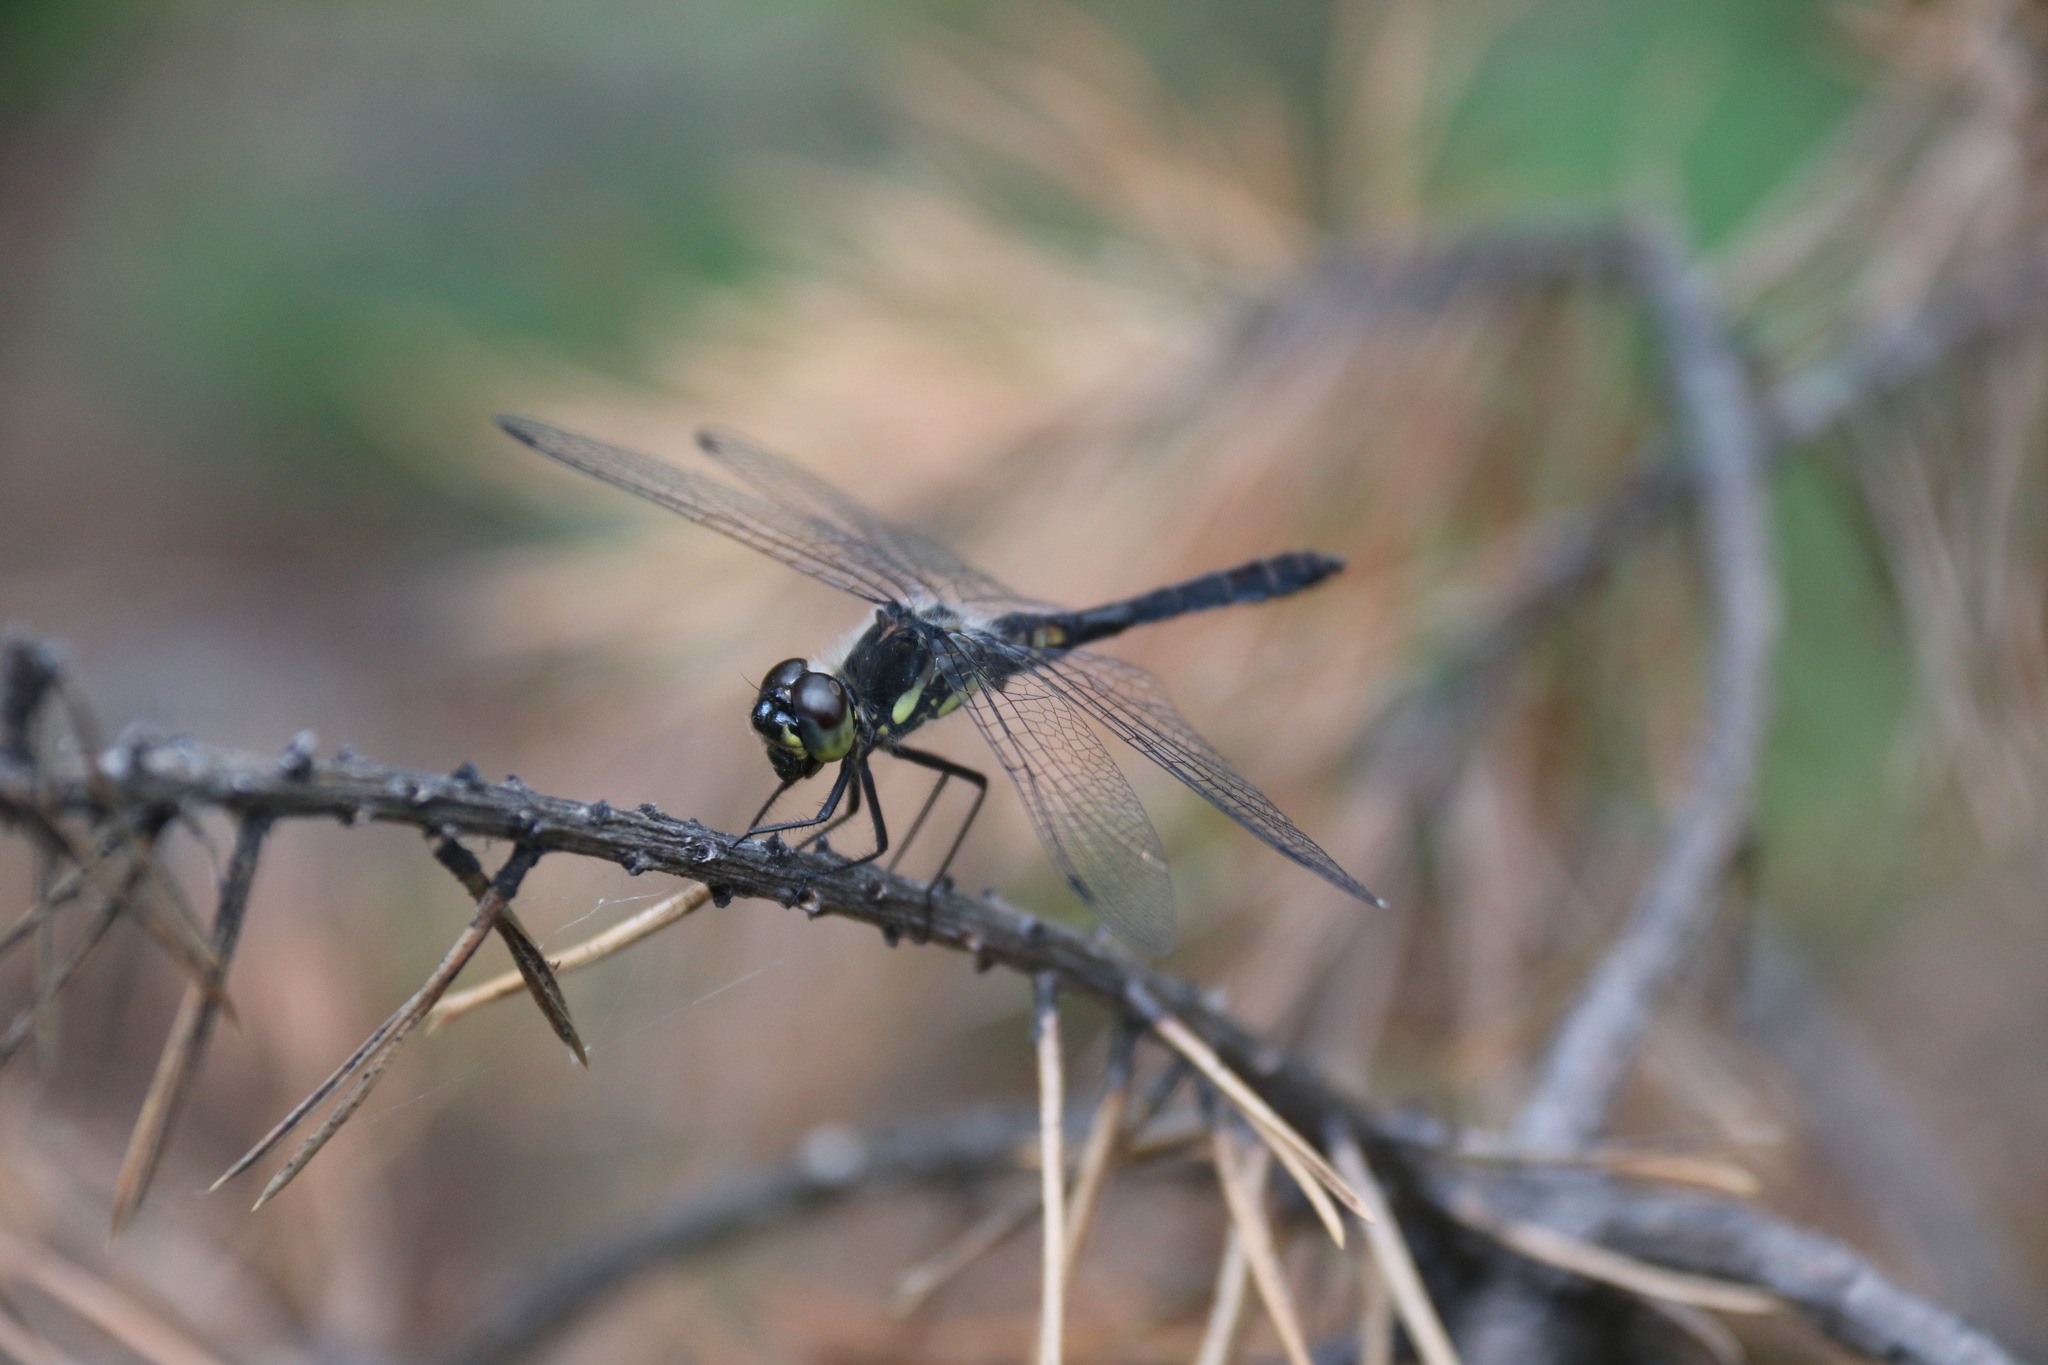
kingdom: Animalia
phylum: Arthropoda
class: Insecta
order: Odonata
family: Libellulidae
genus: Sympetrum
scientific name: Sympetrum danae
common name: Black darter
